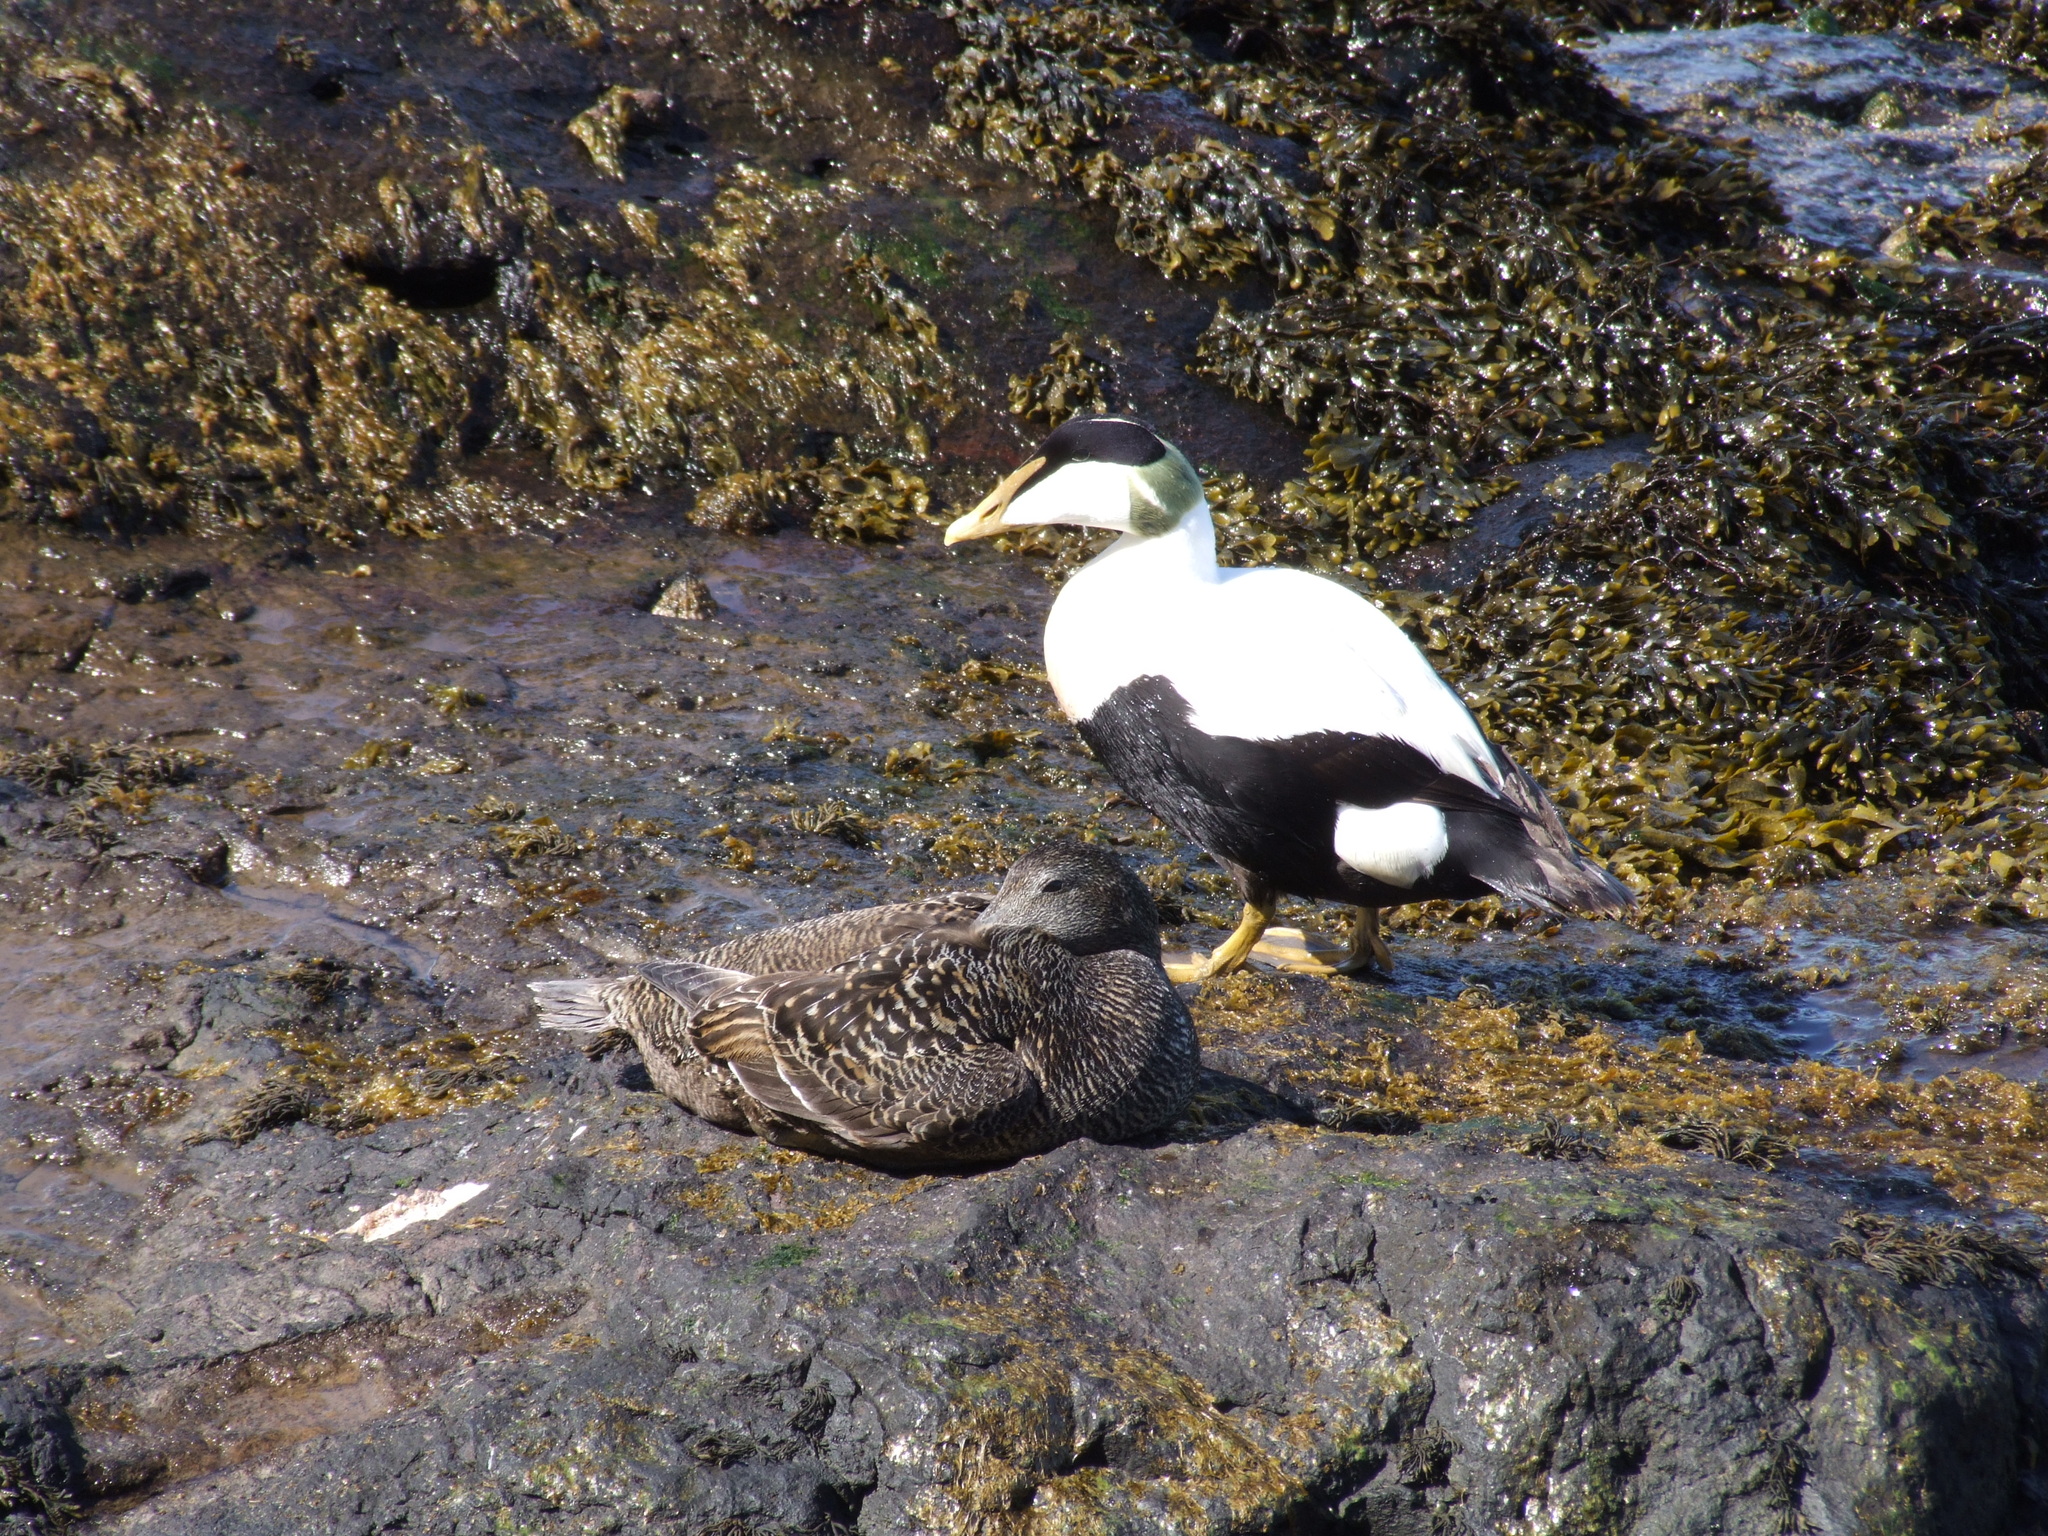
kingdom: Animalia
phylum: Chordata
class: Aves
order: Anseriformes
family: Anatidae
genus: Somateria
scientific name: Somateria mollissima
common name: Common eider
